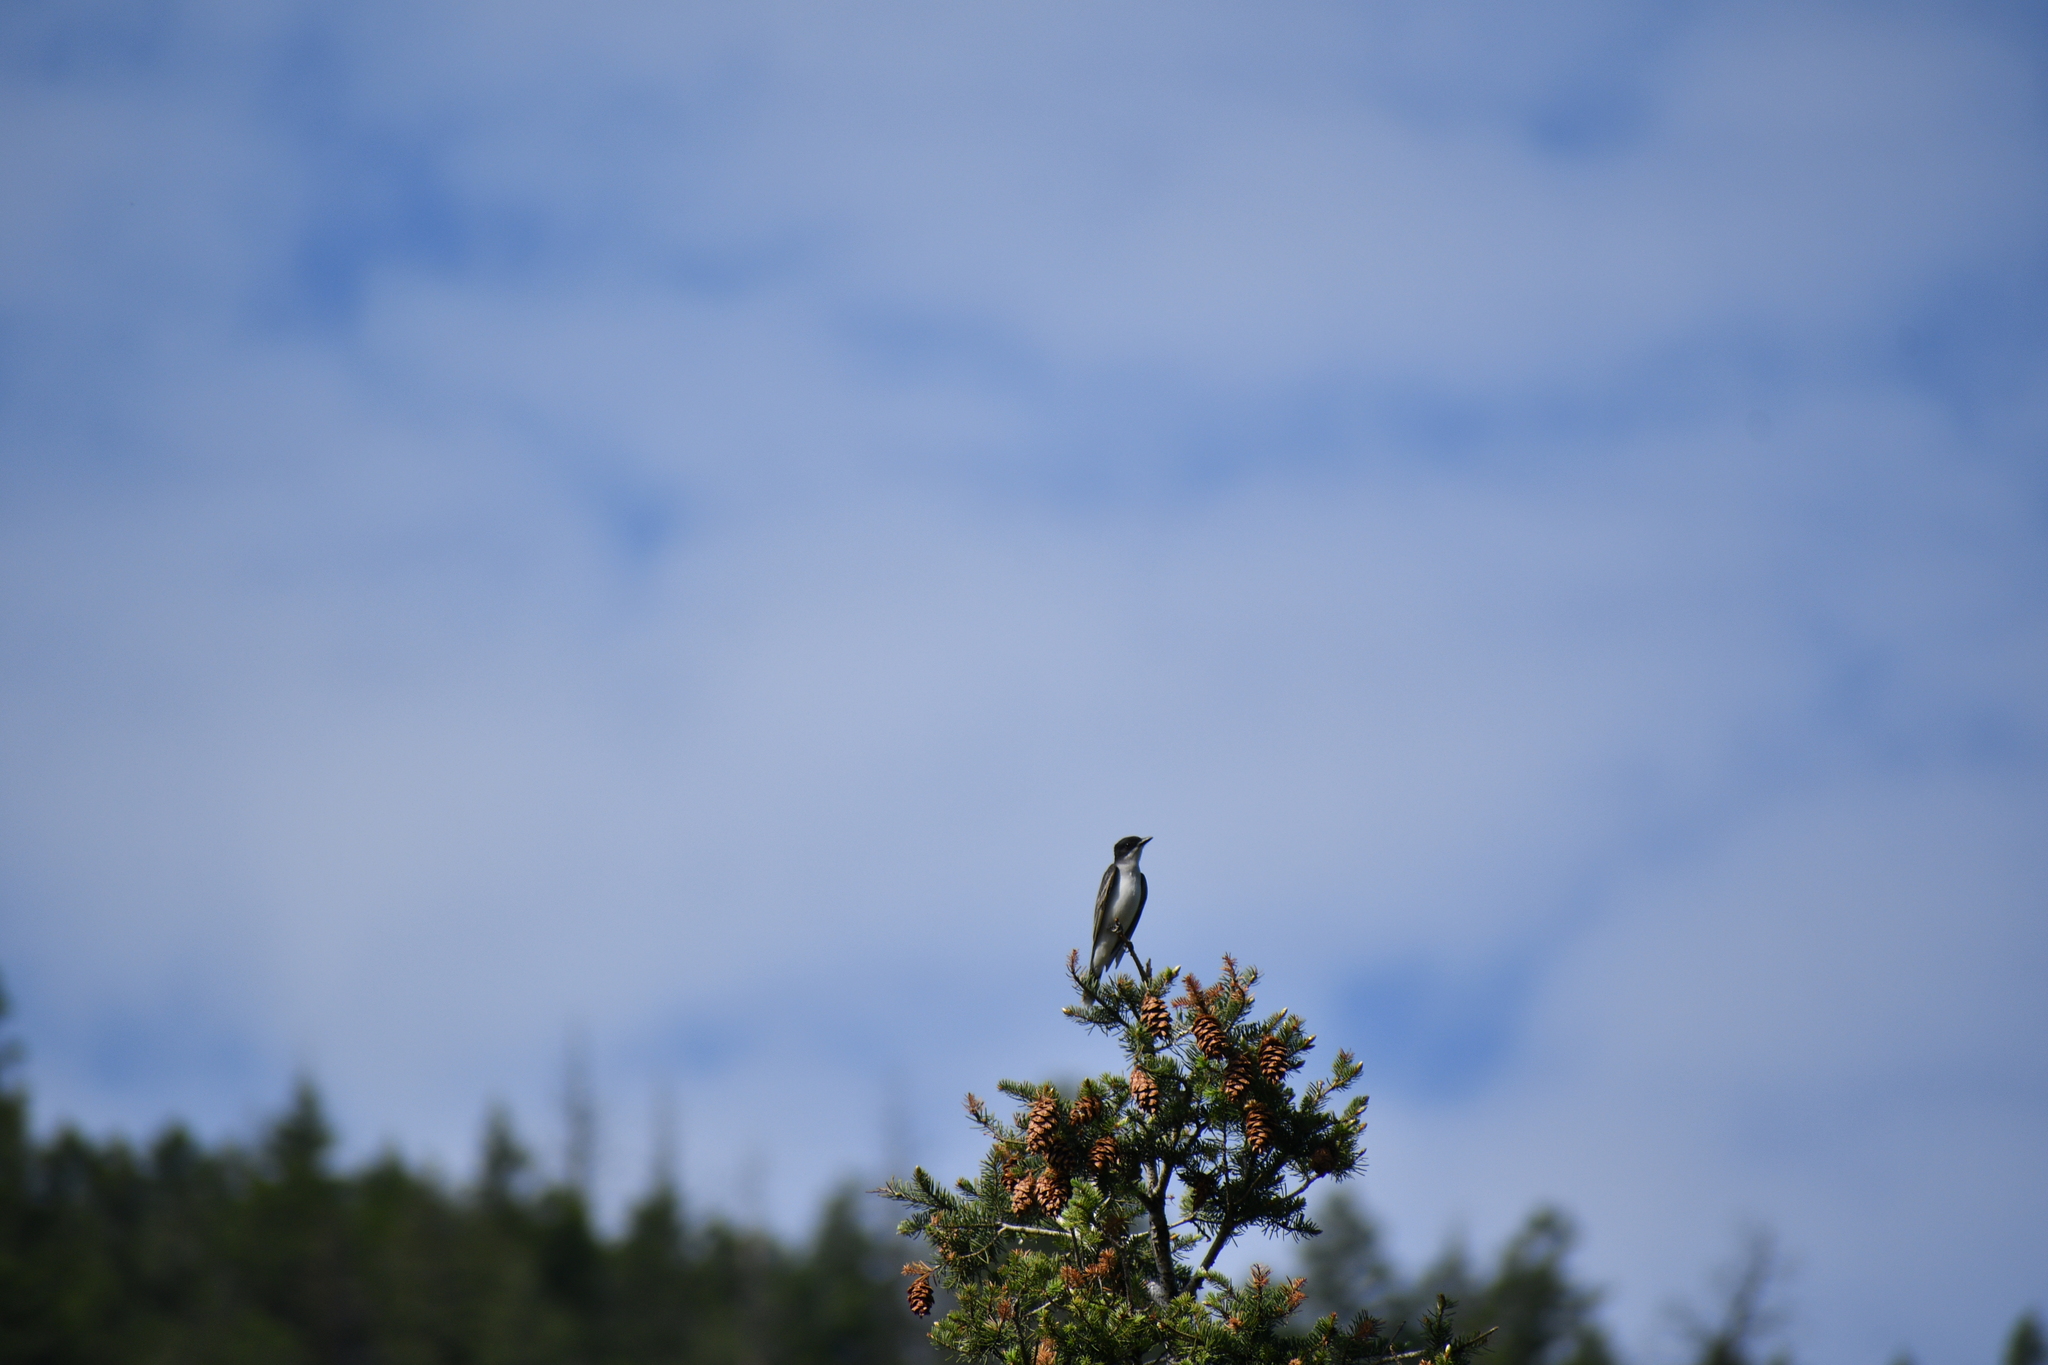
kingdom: Animalia
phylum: Chordata
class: Aves
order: Passeriformes
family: Tyrannidae
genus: Tyrannus
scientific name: Tyrannus tyrannus
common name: Eastern kingbird
